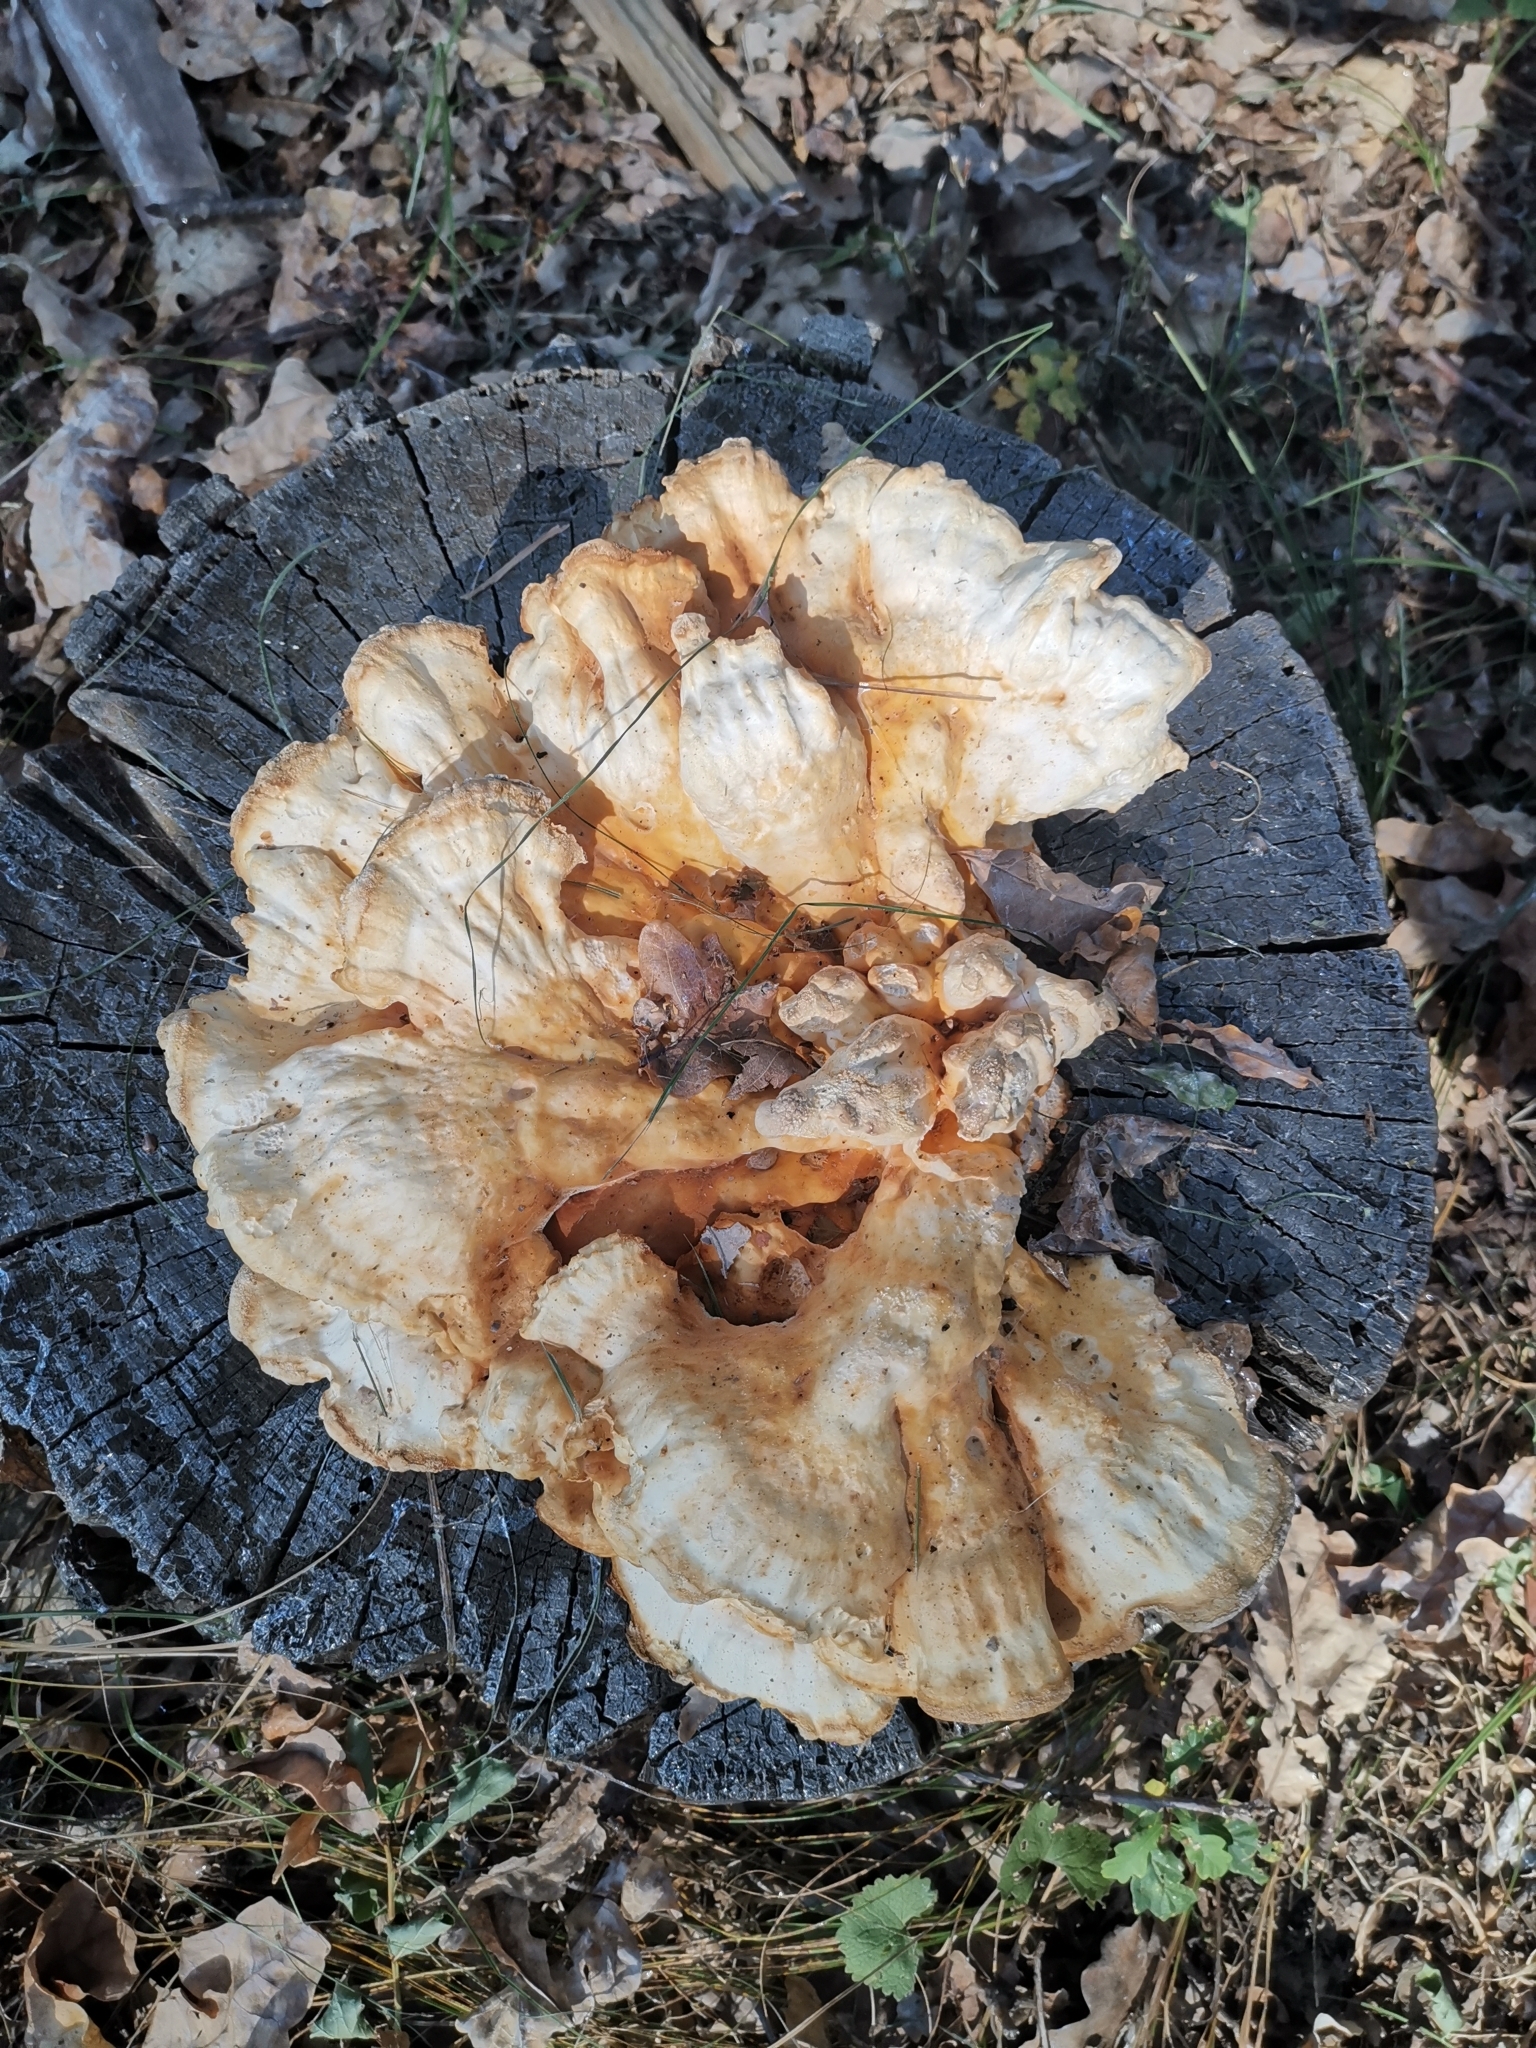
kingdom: Fungi
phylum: Basidiomycota
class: Agaricomycetes
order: Polyporales
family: Laetiporaceae
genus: Laetiporus
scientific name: Laetiporus sulphureus
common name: Chicken of the woods
